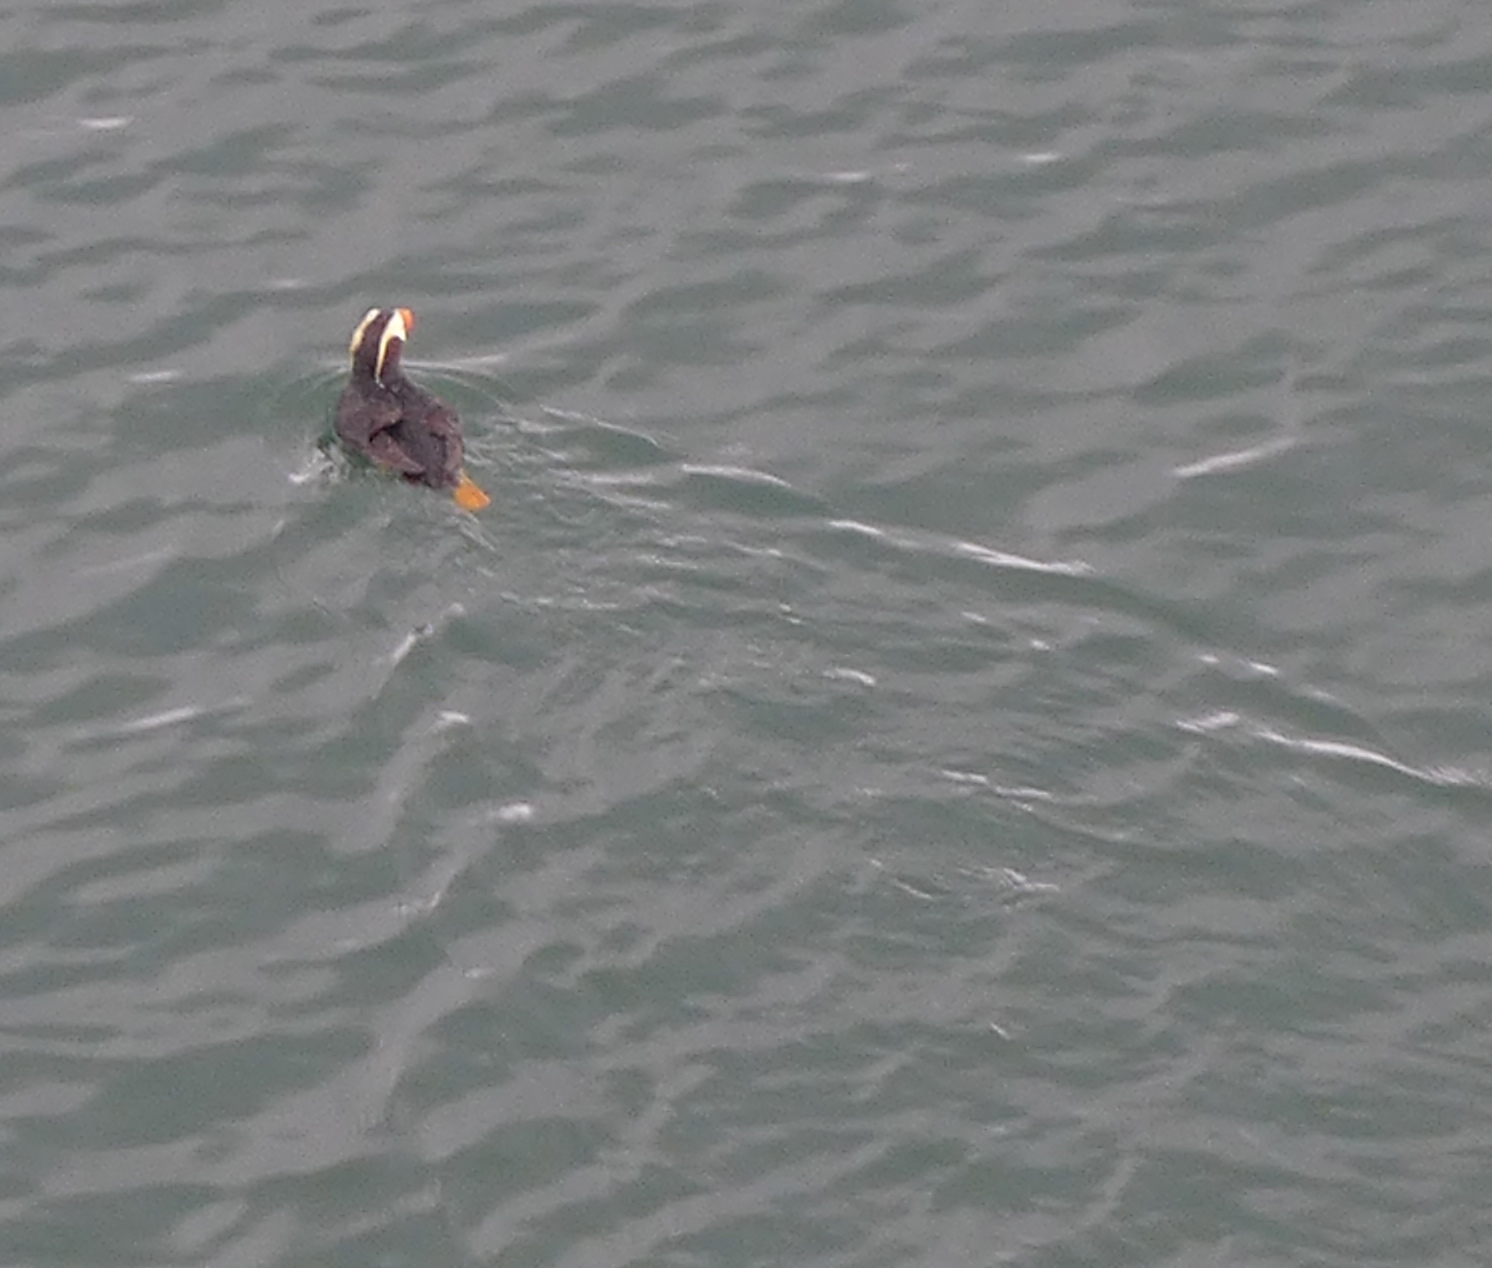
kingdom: Animalia
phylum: Chordata
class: Aves
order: Charadriiformes
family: Alcidae
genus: Fratercula
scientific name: Fratercula cirrhata
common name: Tufted puffin
